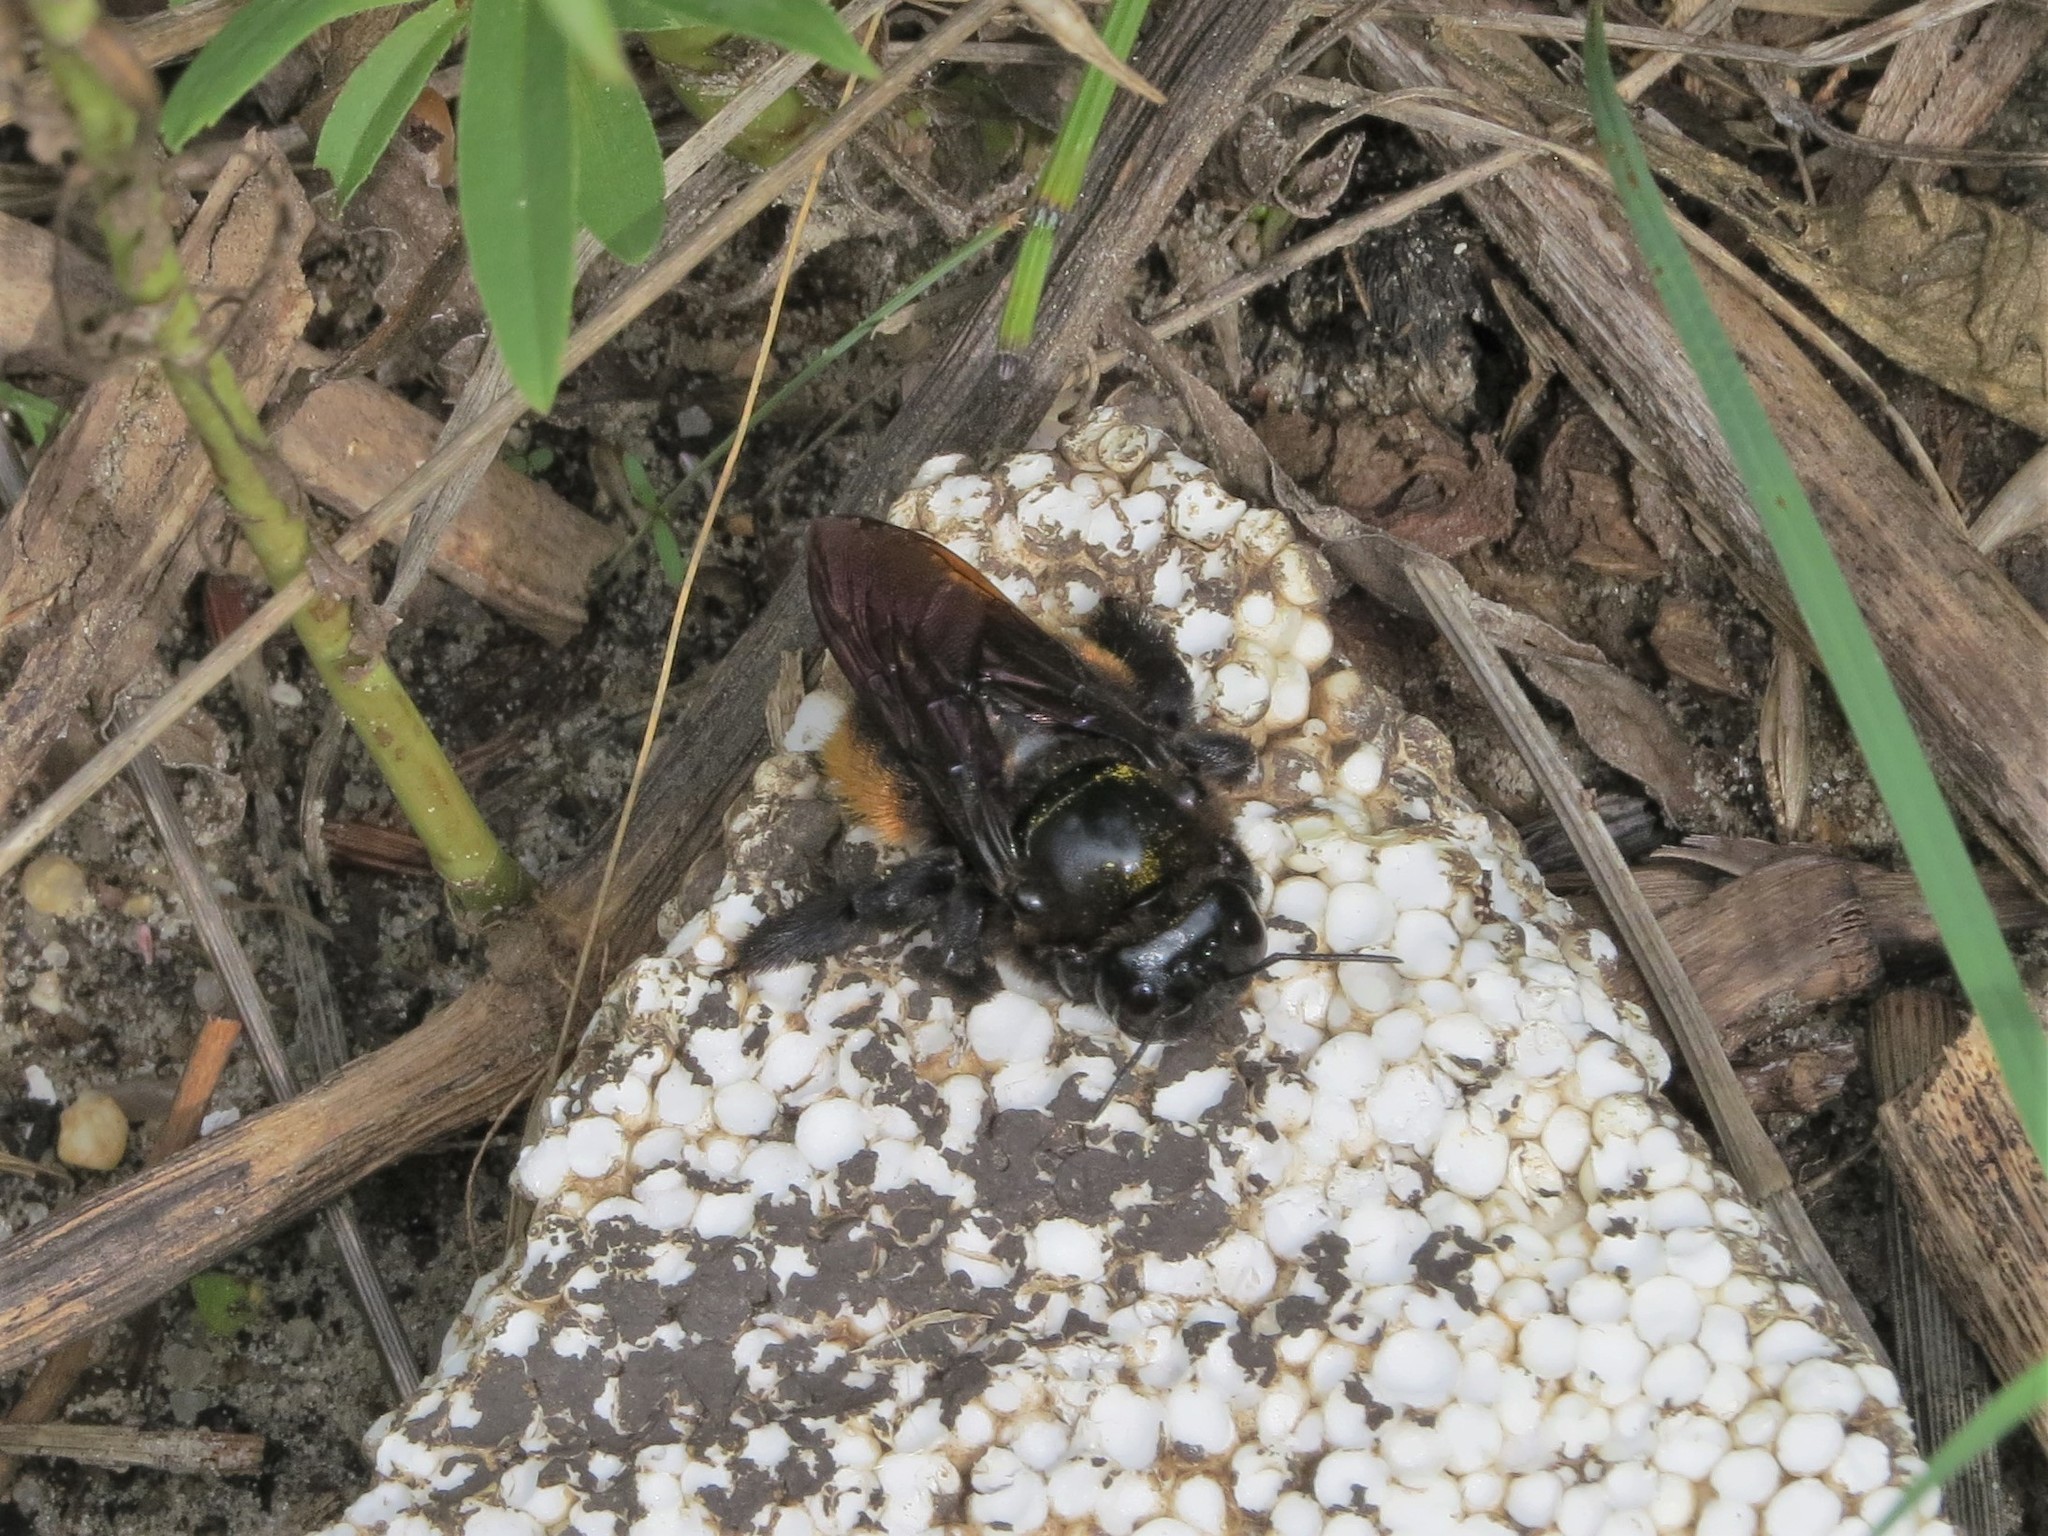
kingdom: Animalia
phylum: Arthropoda
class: Insecta
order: Hymenoptera
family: Apidae
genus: Xylocopa
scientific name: Xylocopa augusti
